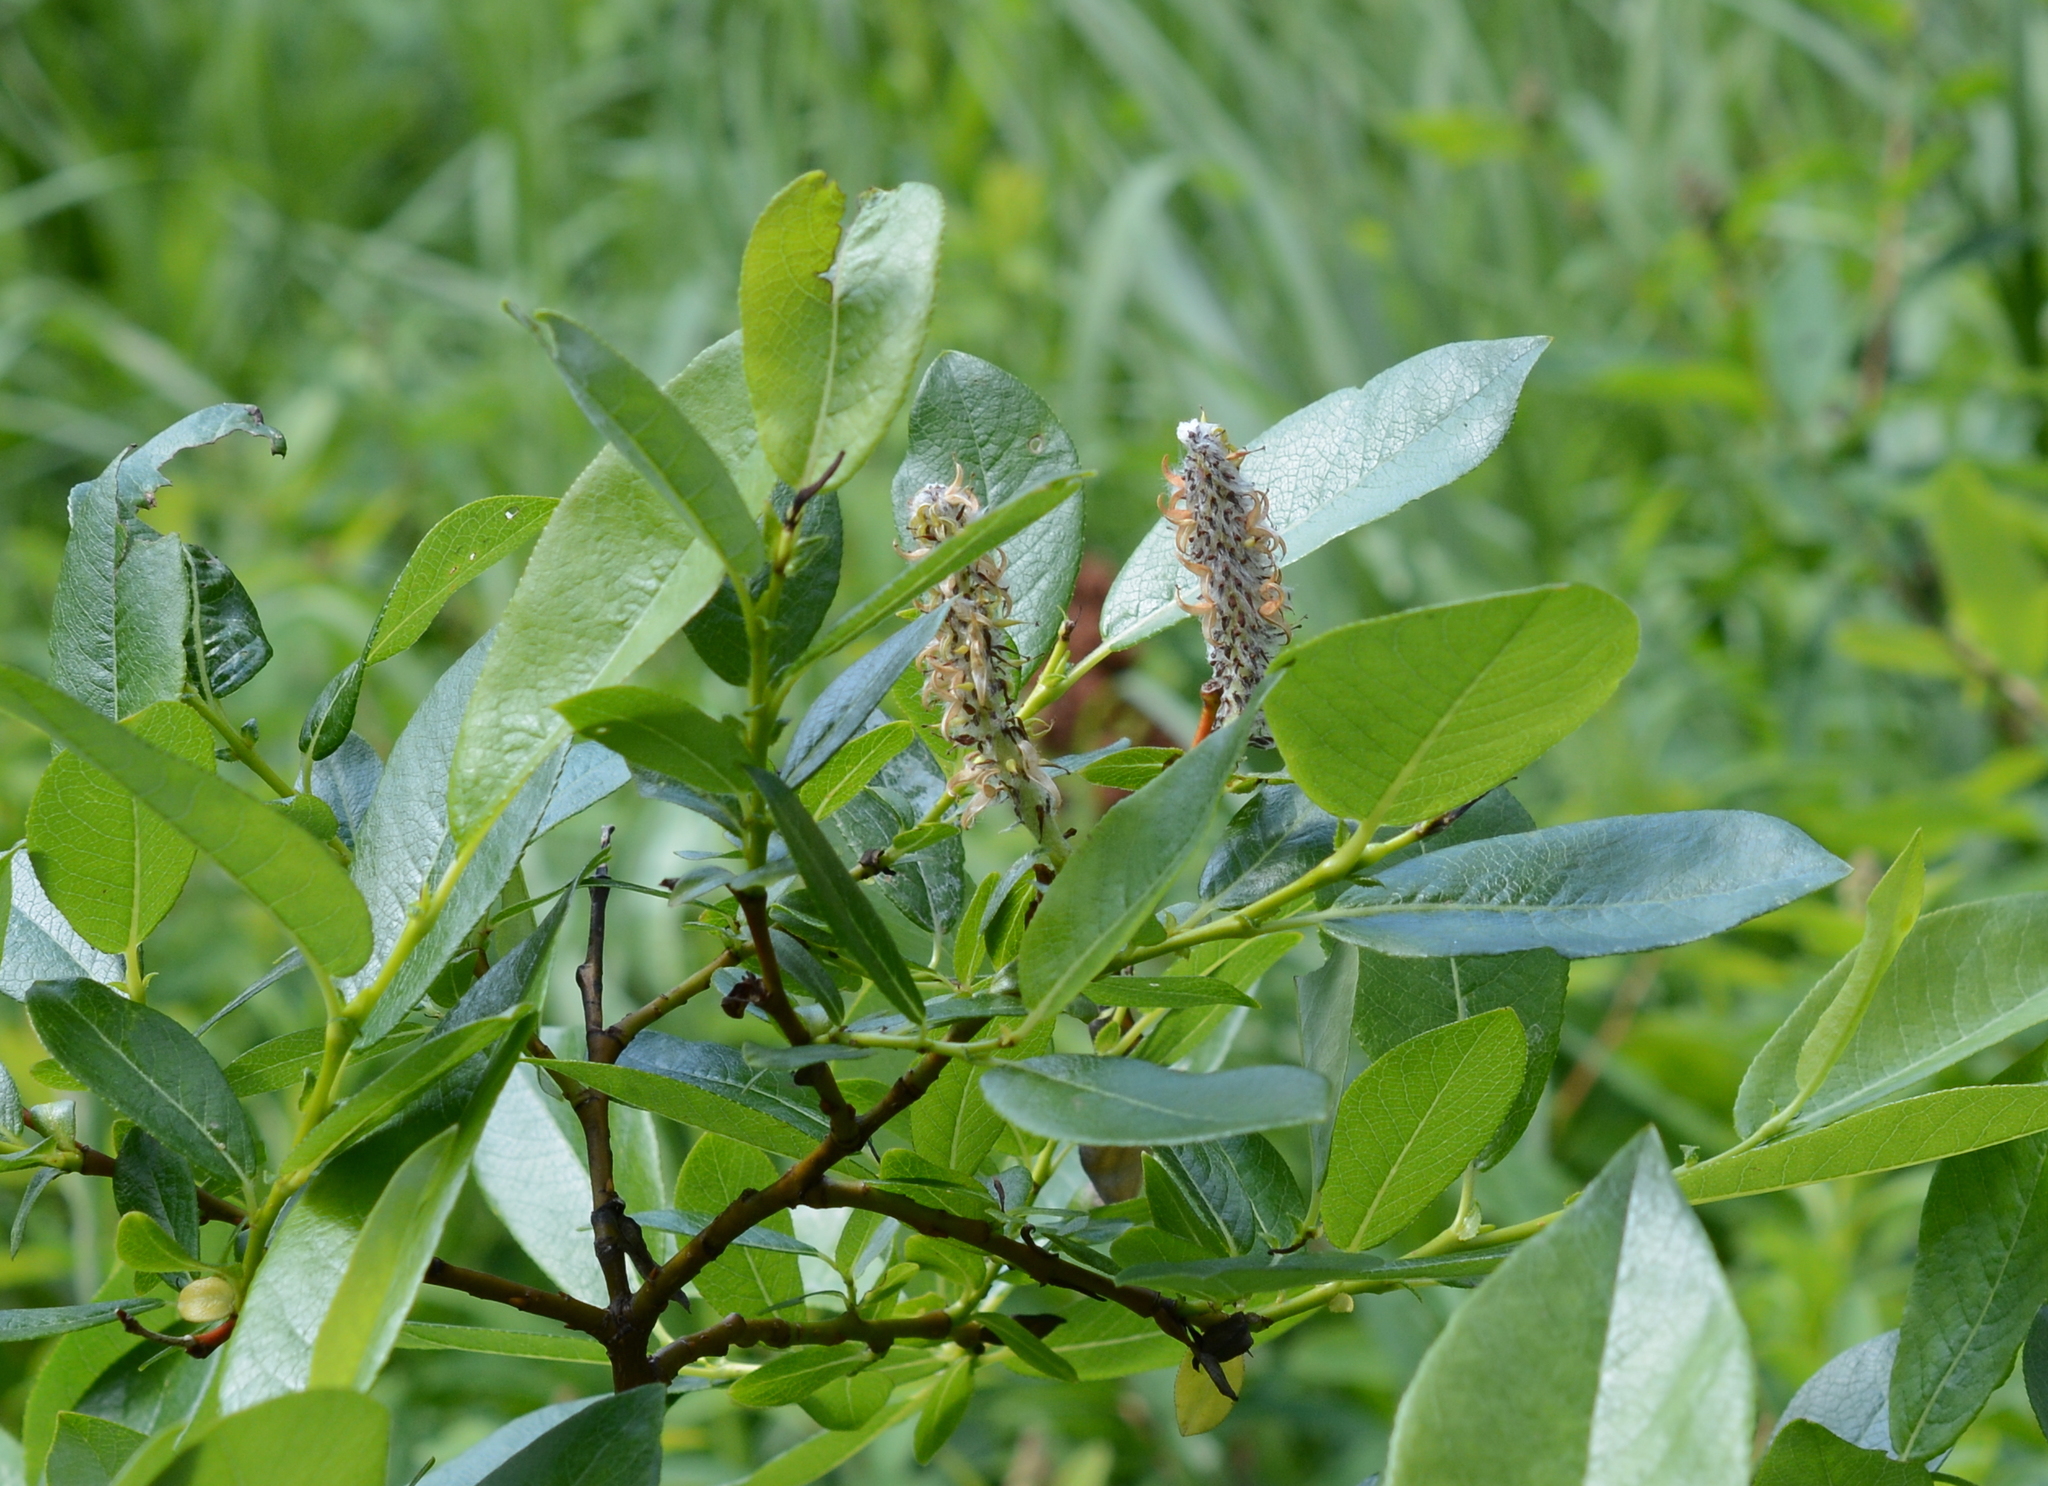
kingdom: Plantae
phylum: Tracheophyta
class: Magnoliopsida
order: Malpighiales
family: Salicaceae
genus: Salix
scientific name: Salix barclayi
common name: Mountain willow
